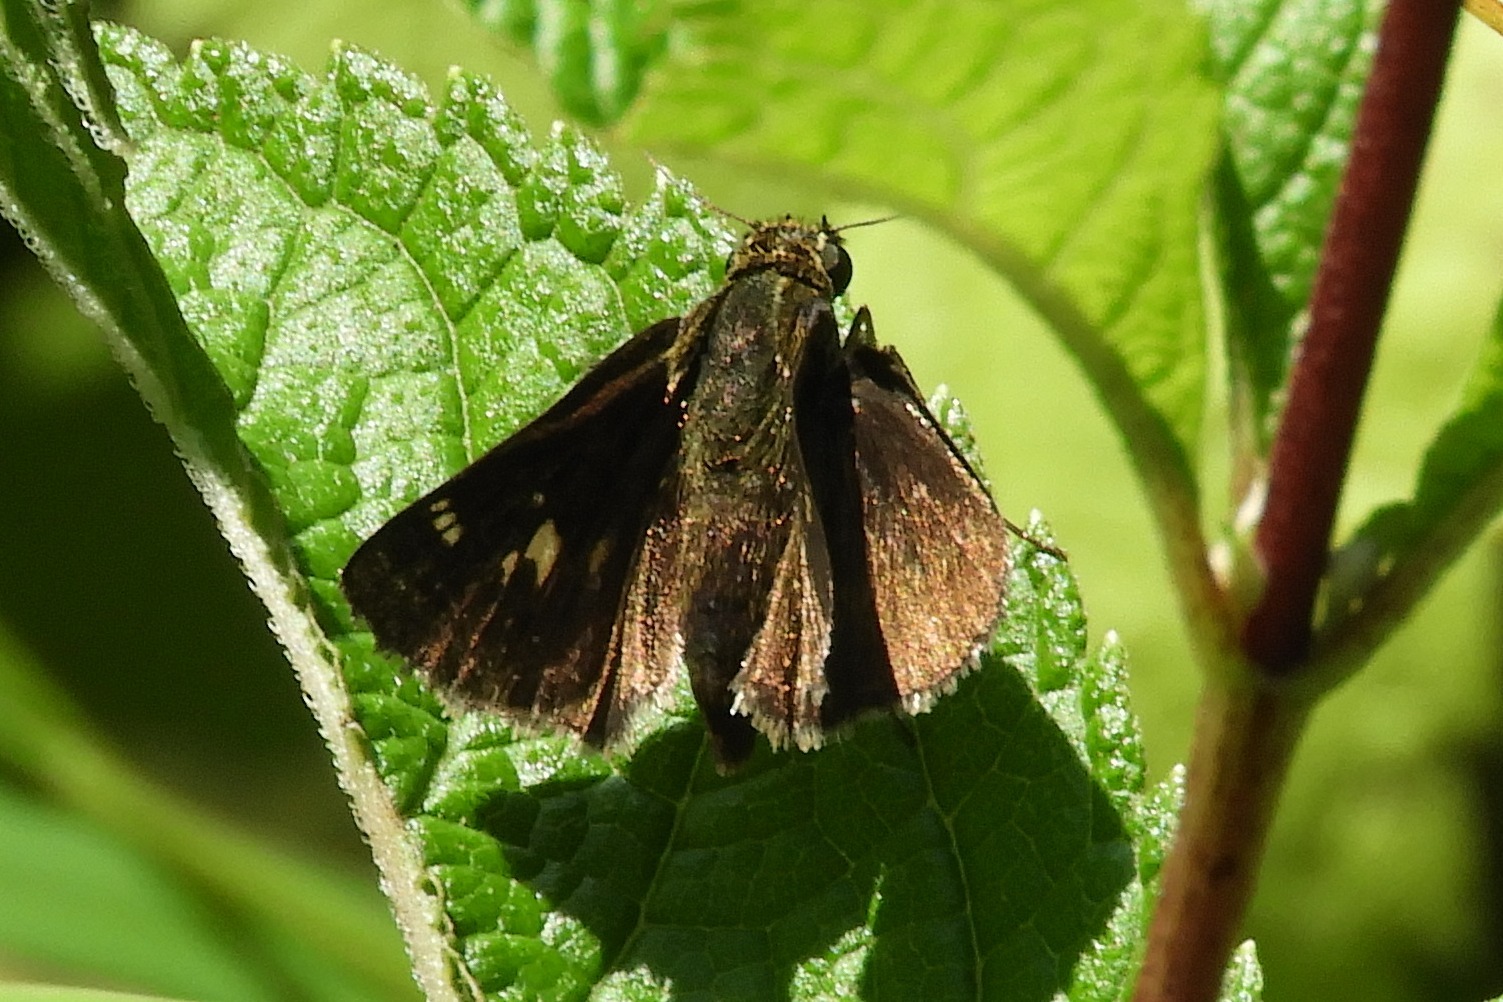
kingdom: Animalia
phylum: Arthropoda
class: Insecta
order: Lepidoptera
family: Hesperiidae
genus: Vernia
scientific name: Vernia verna
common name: Little glassywing
